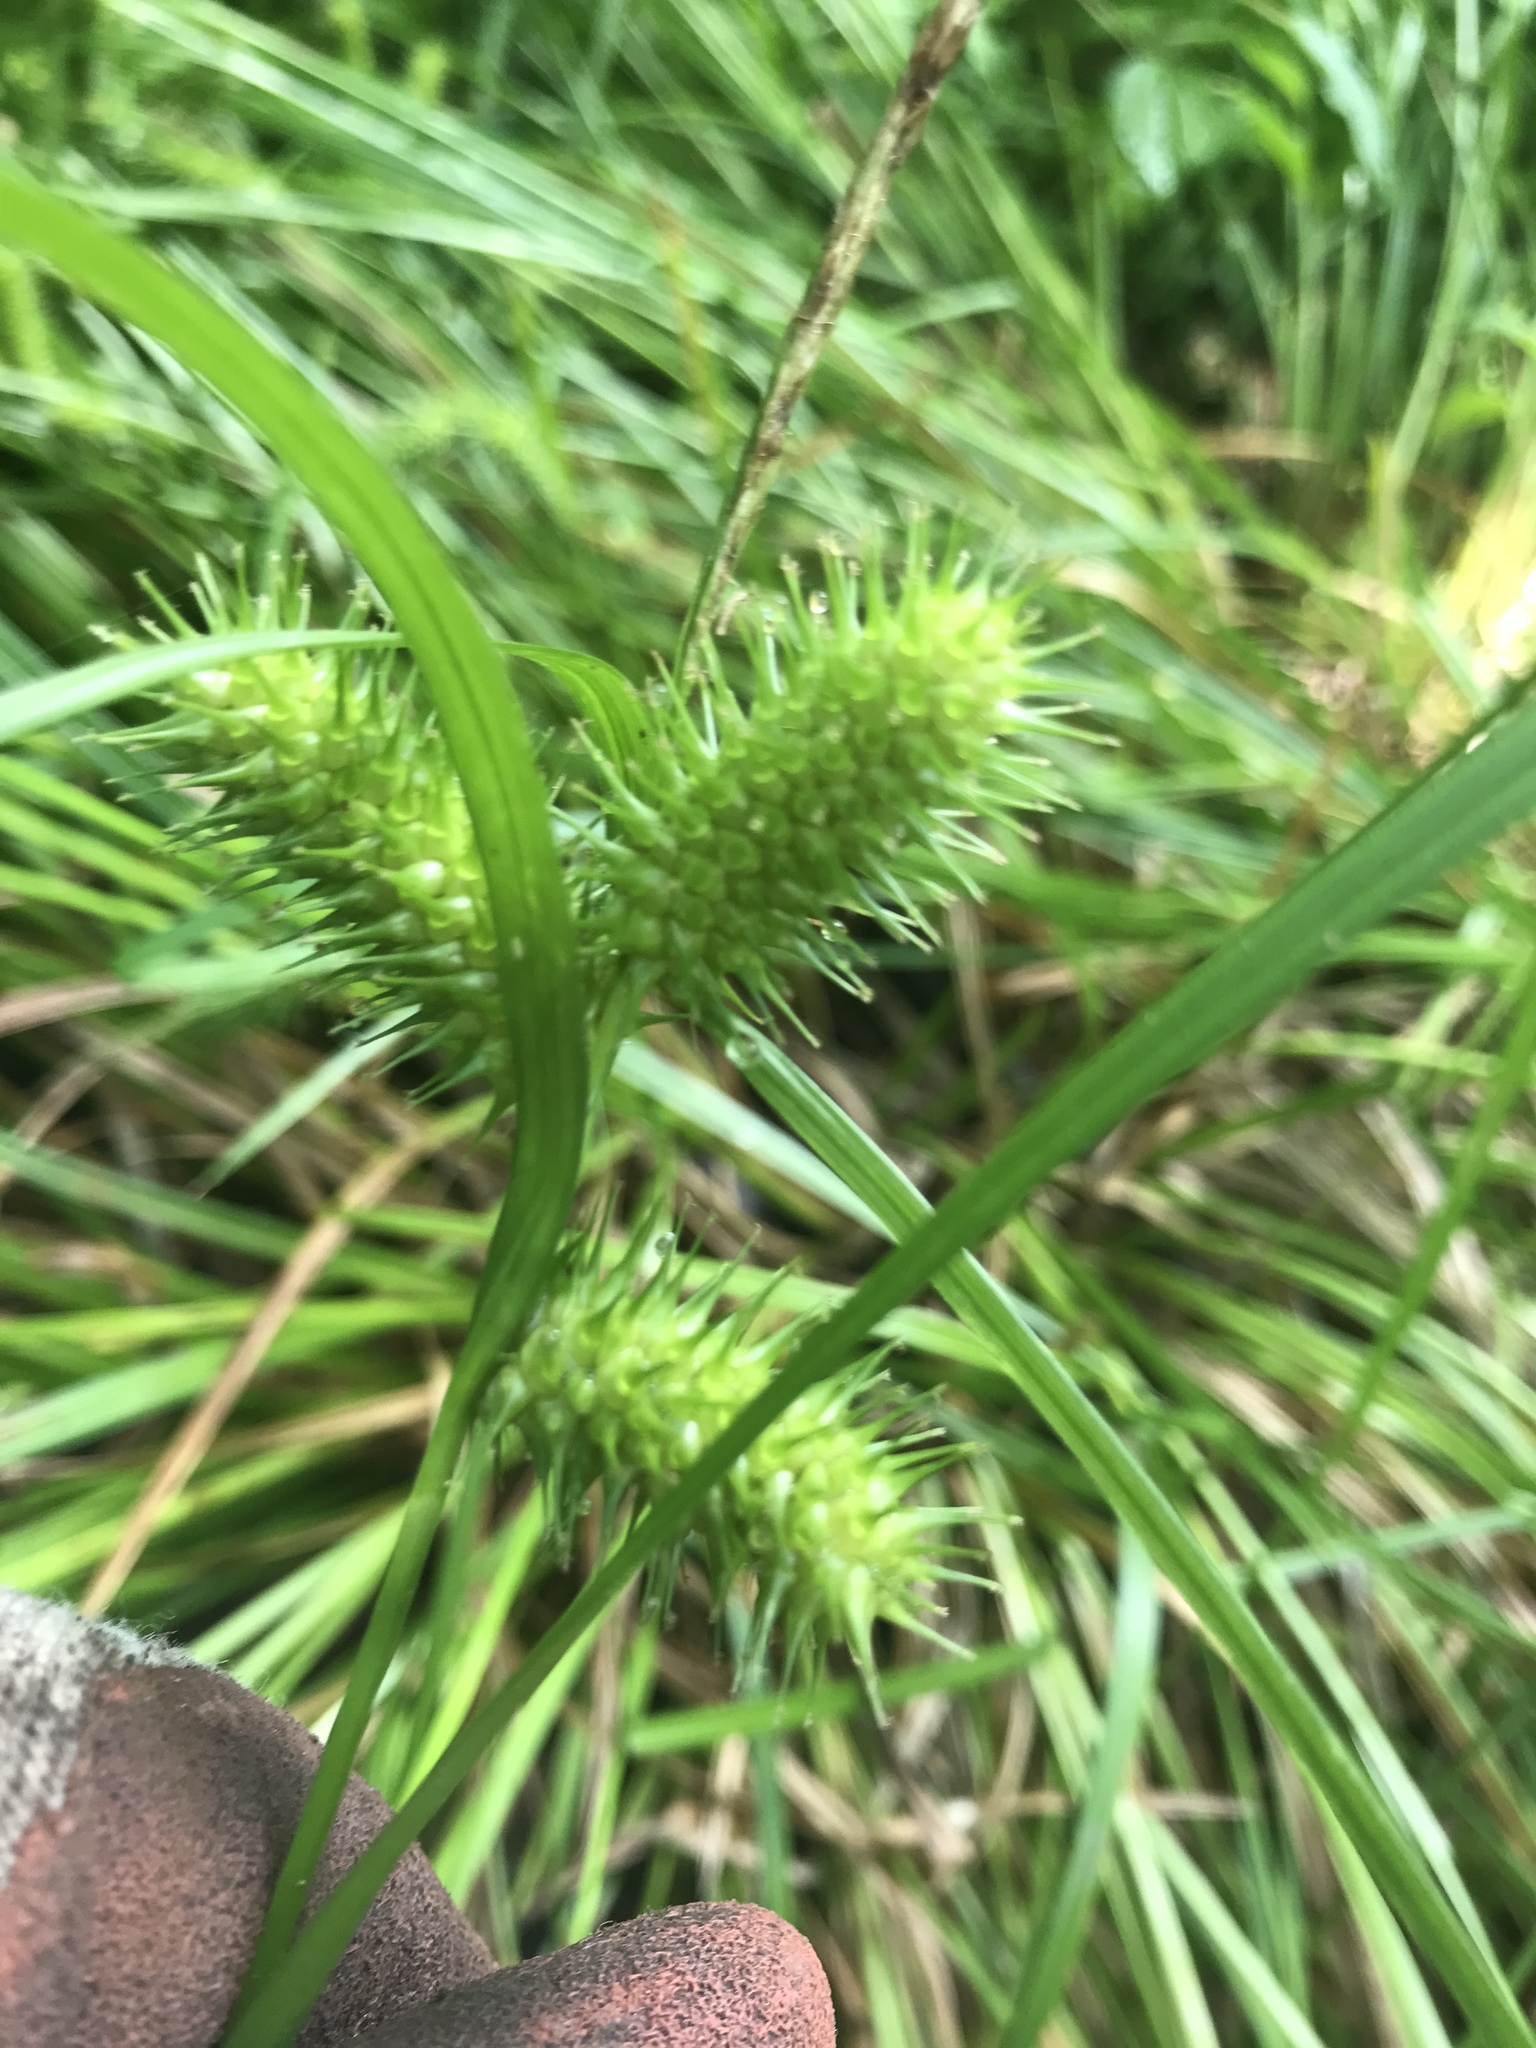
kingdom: Plantae
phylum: Tracheophyta
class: Liliopsida
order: Poales
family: Cyperaceae
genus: Carex
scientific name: Carex lurida
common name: Sallow sedge
